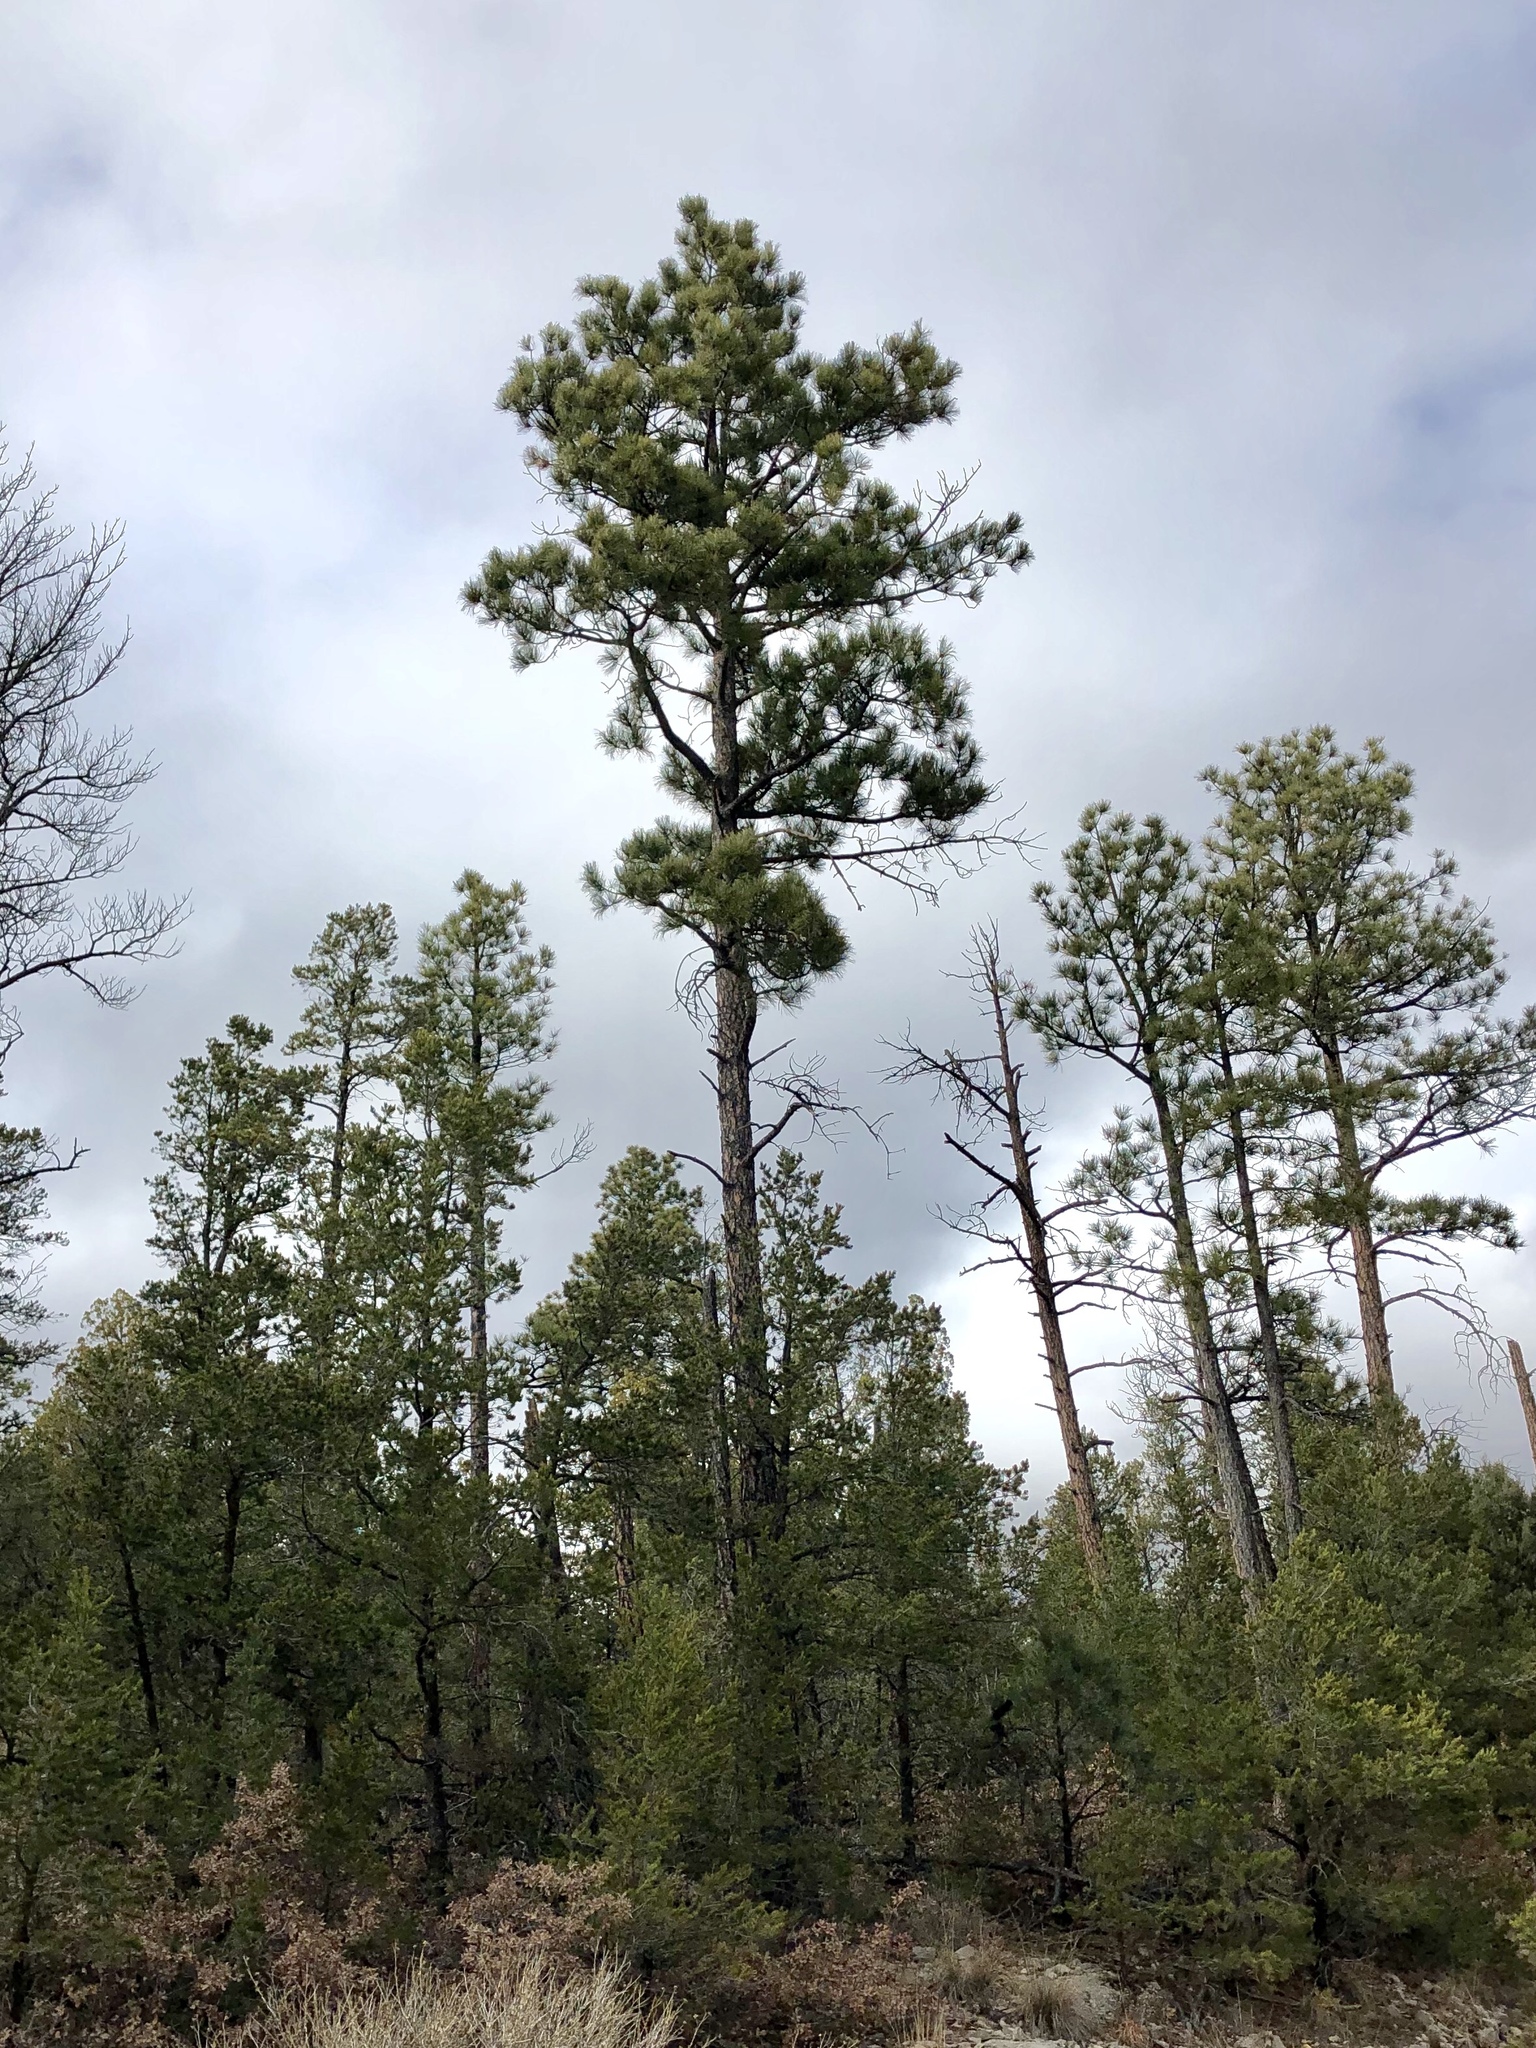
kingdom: Plantae
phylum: Tracheophyta
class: Pinopsida
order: Pinales
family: Pinaceae
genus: Pinus
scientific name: Pinus ponderosa
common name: Western yellow-pine
